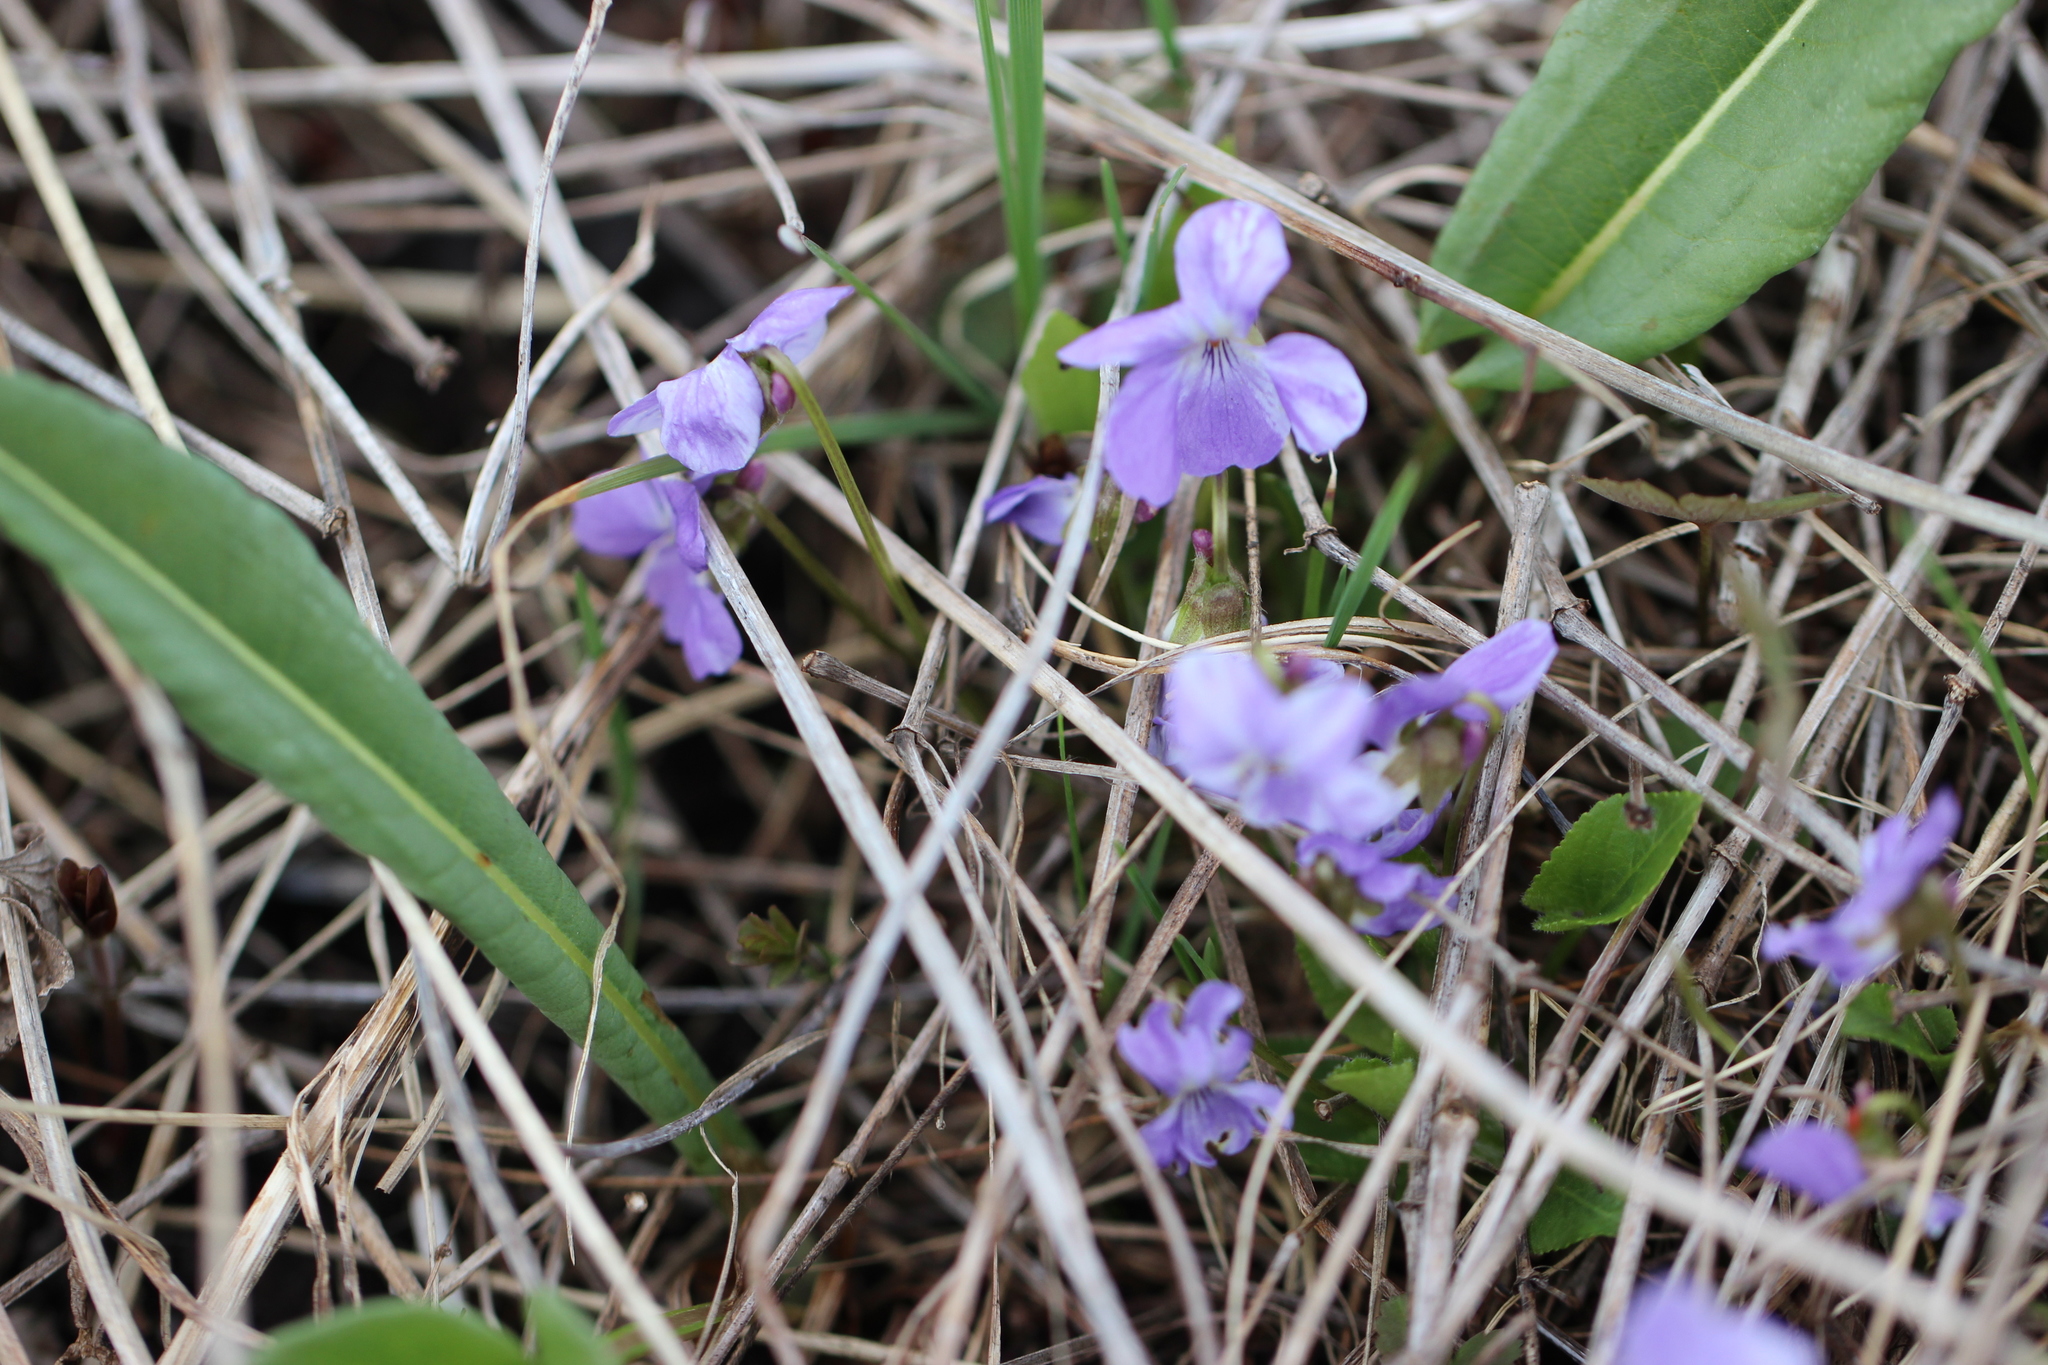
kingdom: Plantae
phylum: Tracheophyta
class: Magnoliopsida
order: Malpighiales
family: Violaceae
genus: Viola
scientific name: Viola hirta
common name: Hairy violet
